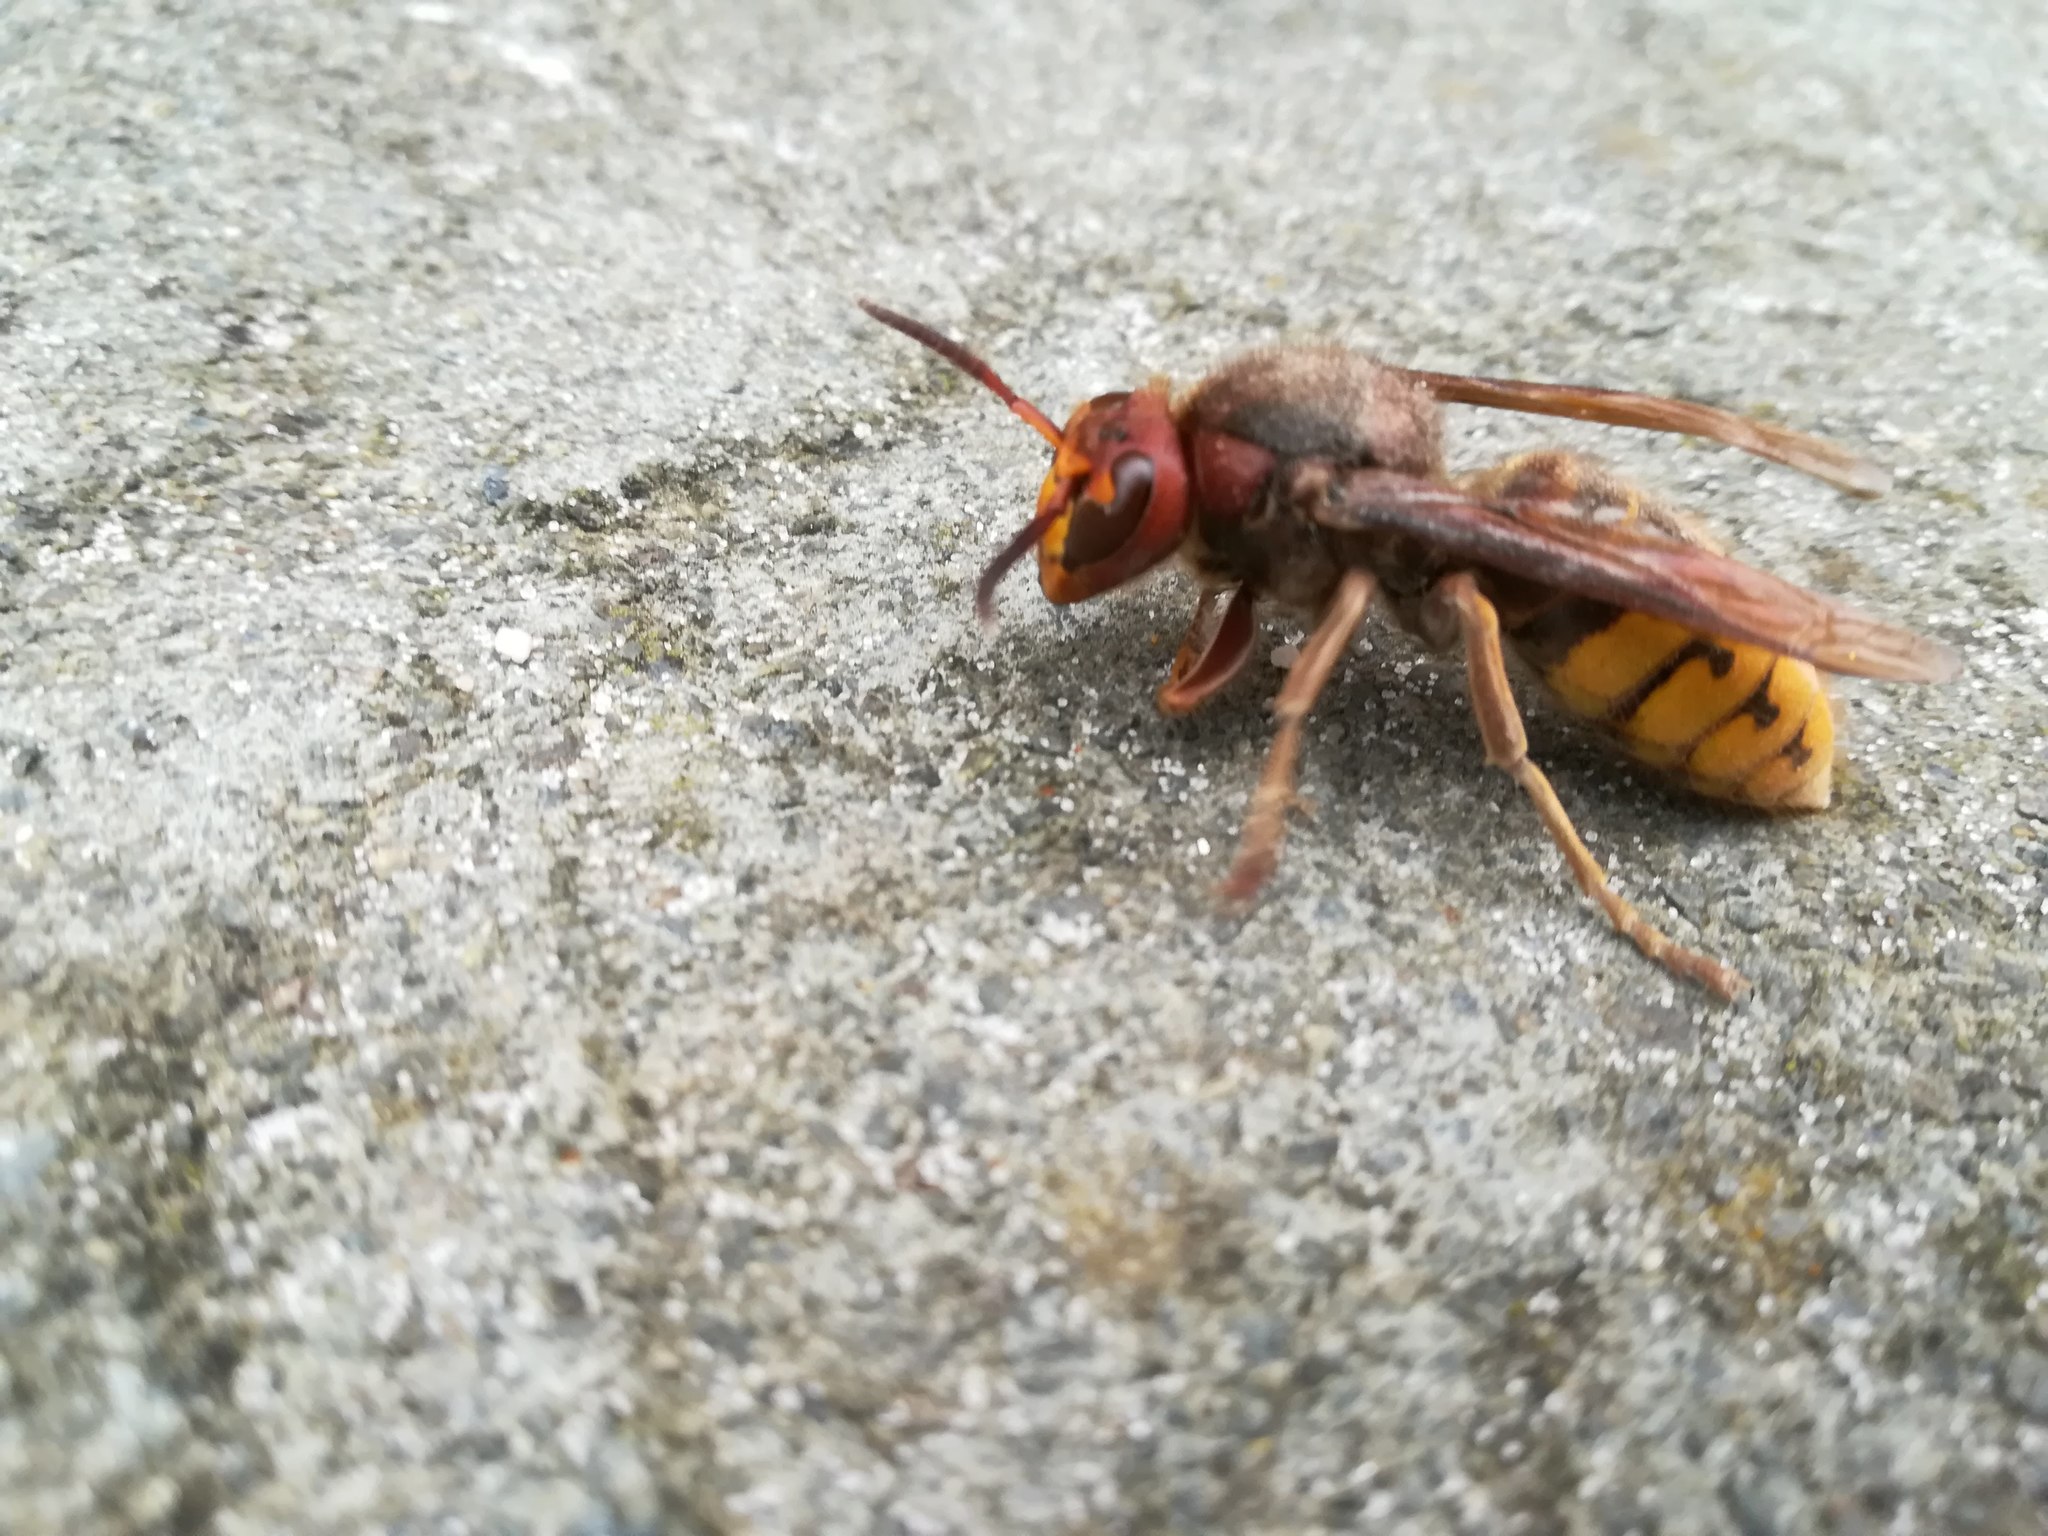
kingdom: Animalia
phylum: Arthropoda
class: Insecta
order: Hymenoptera
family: Vespidae
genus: Vespa
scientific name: Vespa crabro
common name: Hornet
